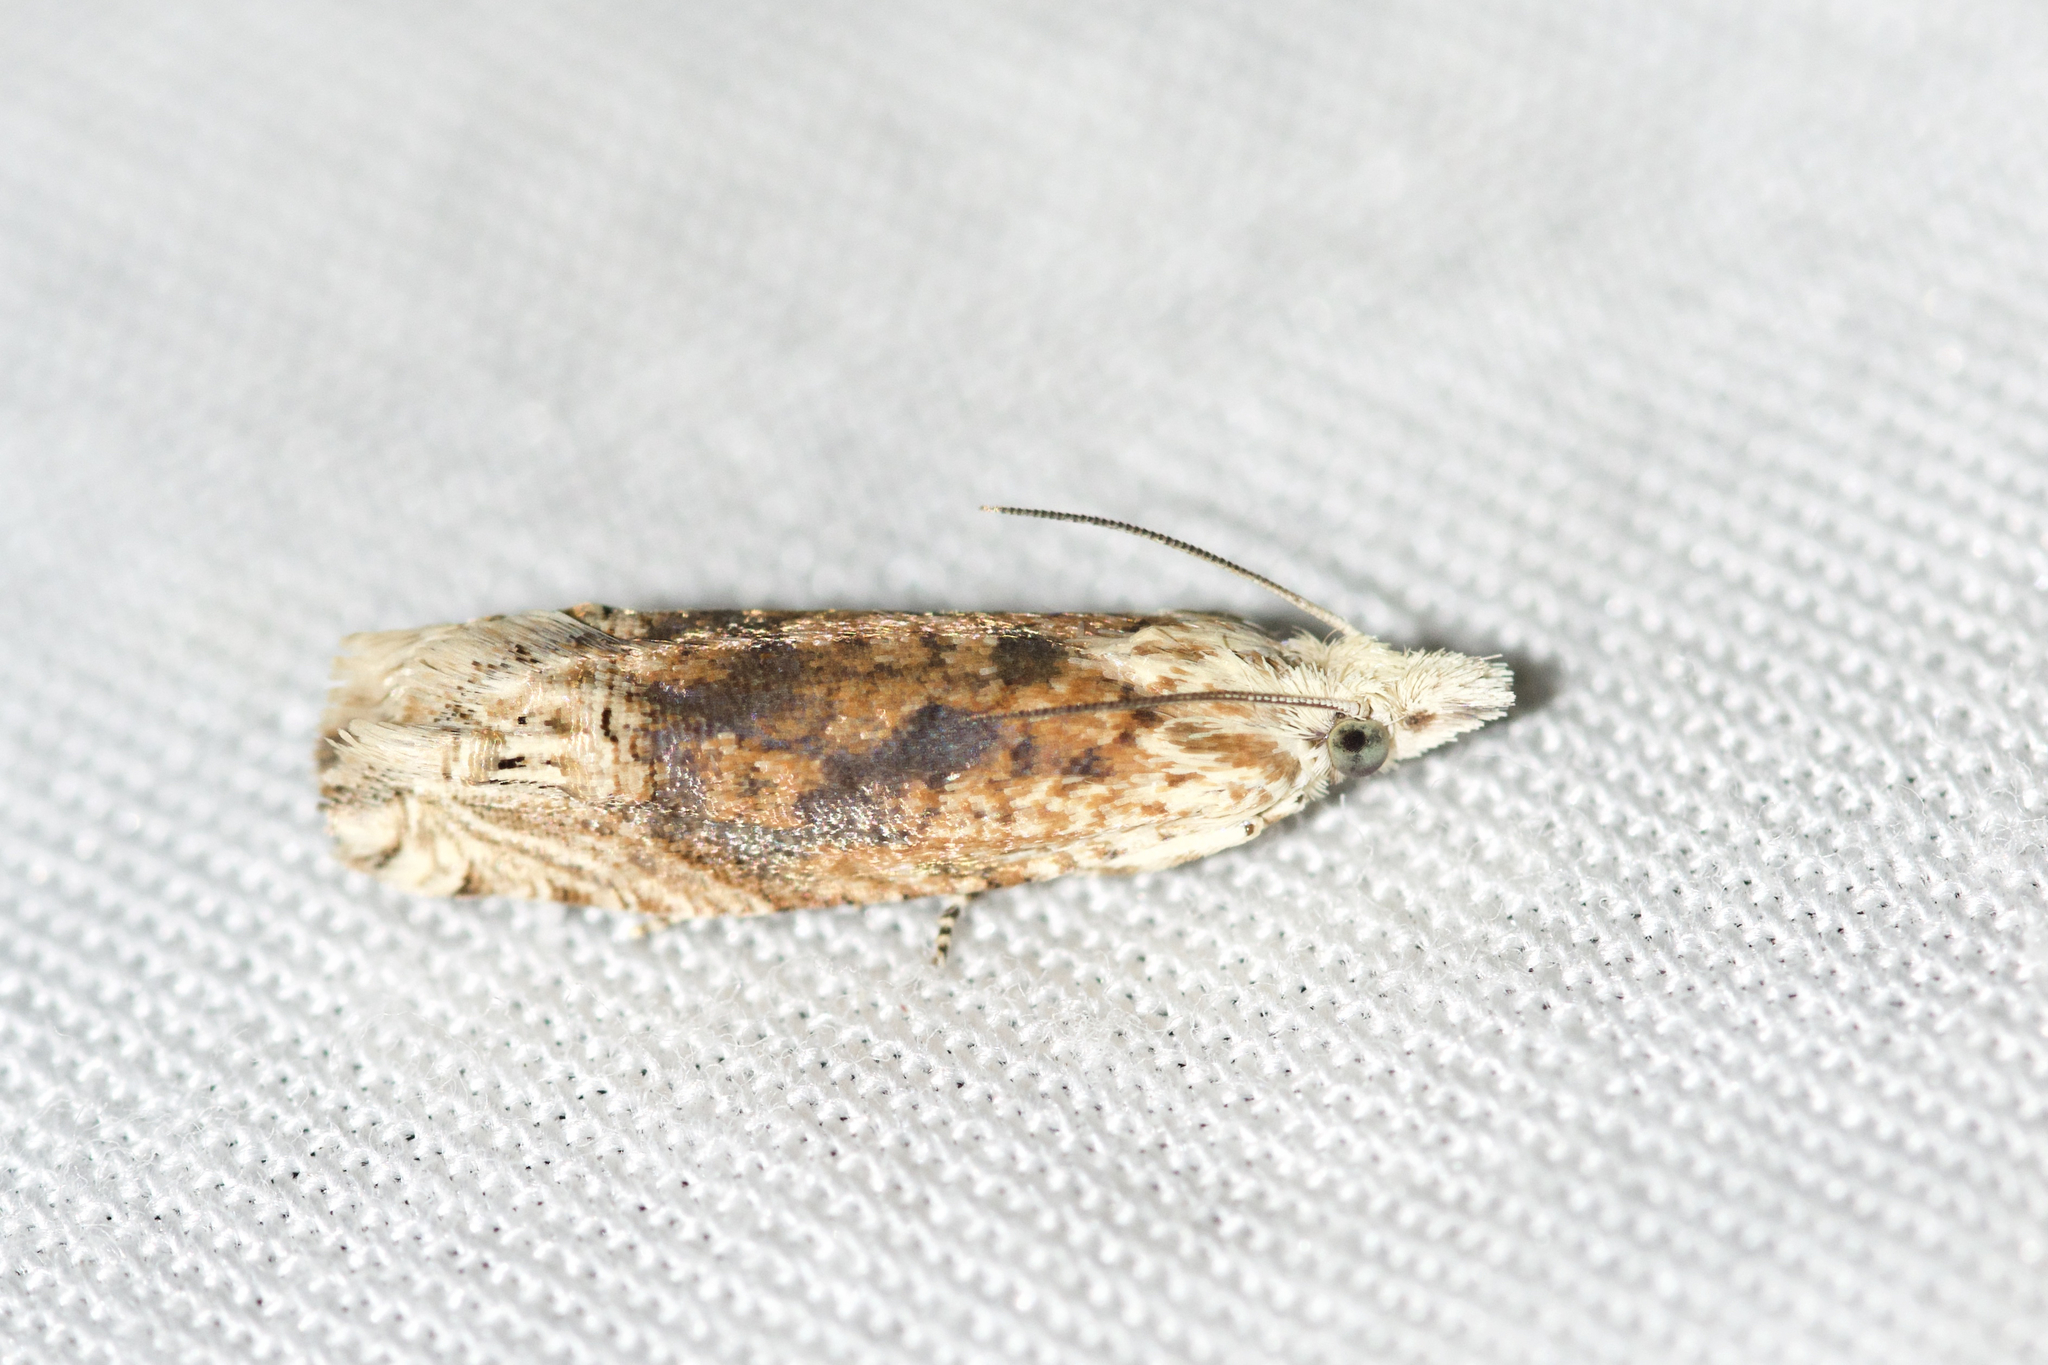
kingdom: Animalia
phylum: Arthropoda
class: Insecta
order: Lepidoptera
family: Tortricidae
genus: Eucosma
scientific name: Eucosma ochrocephala
